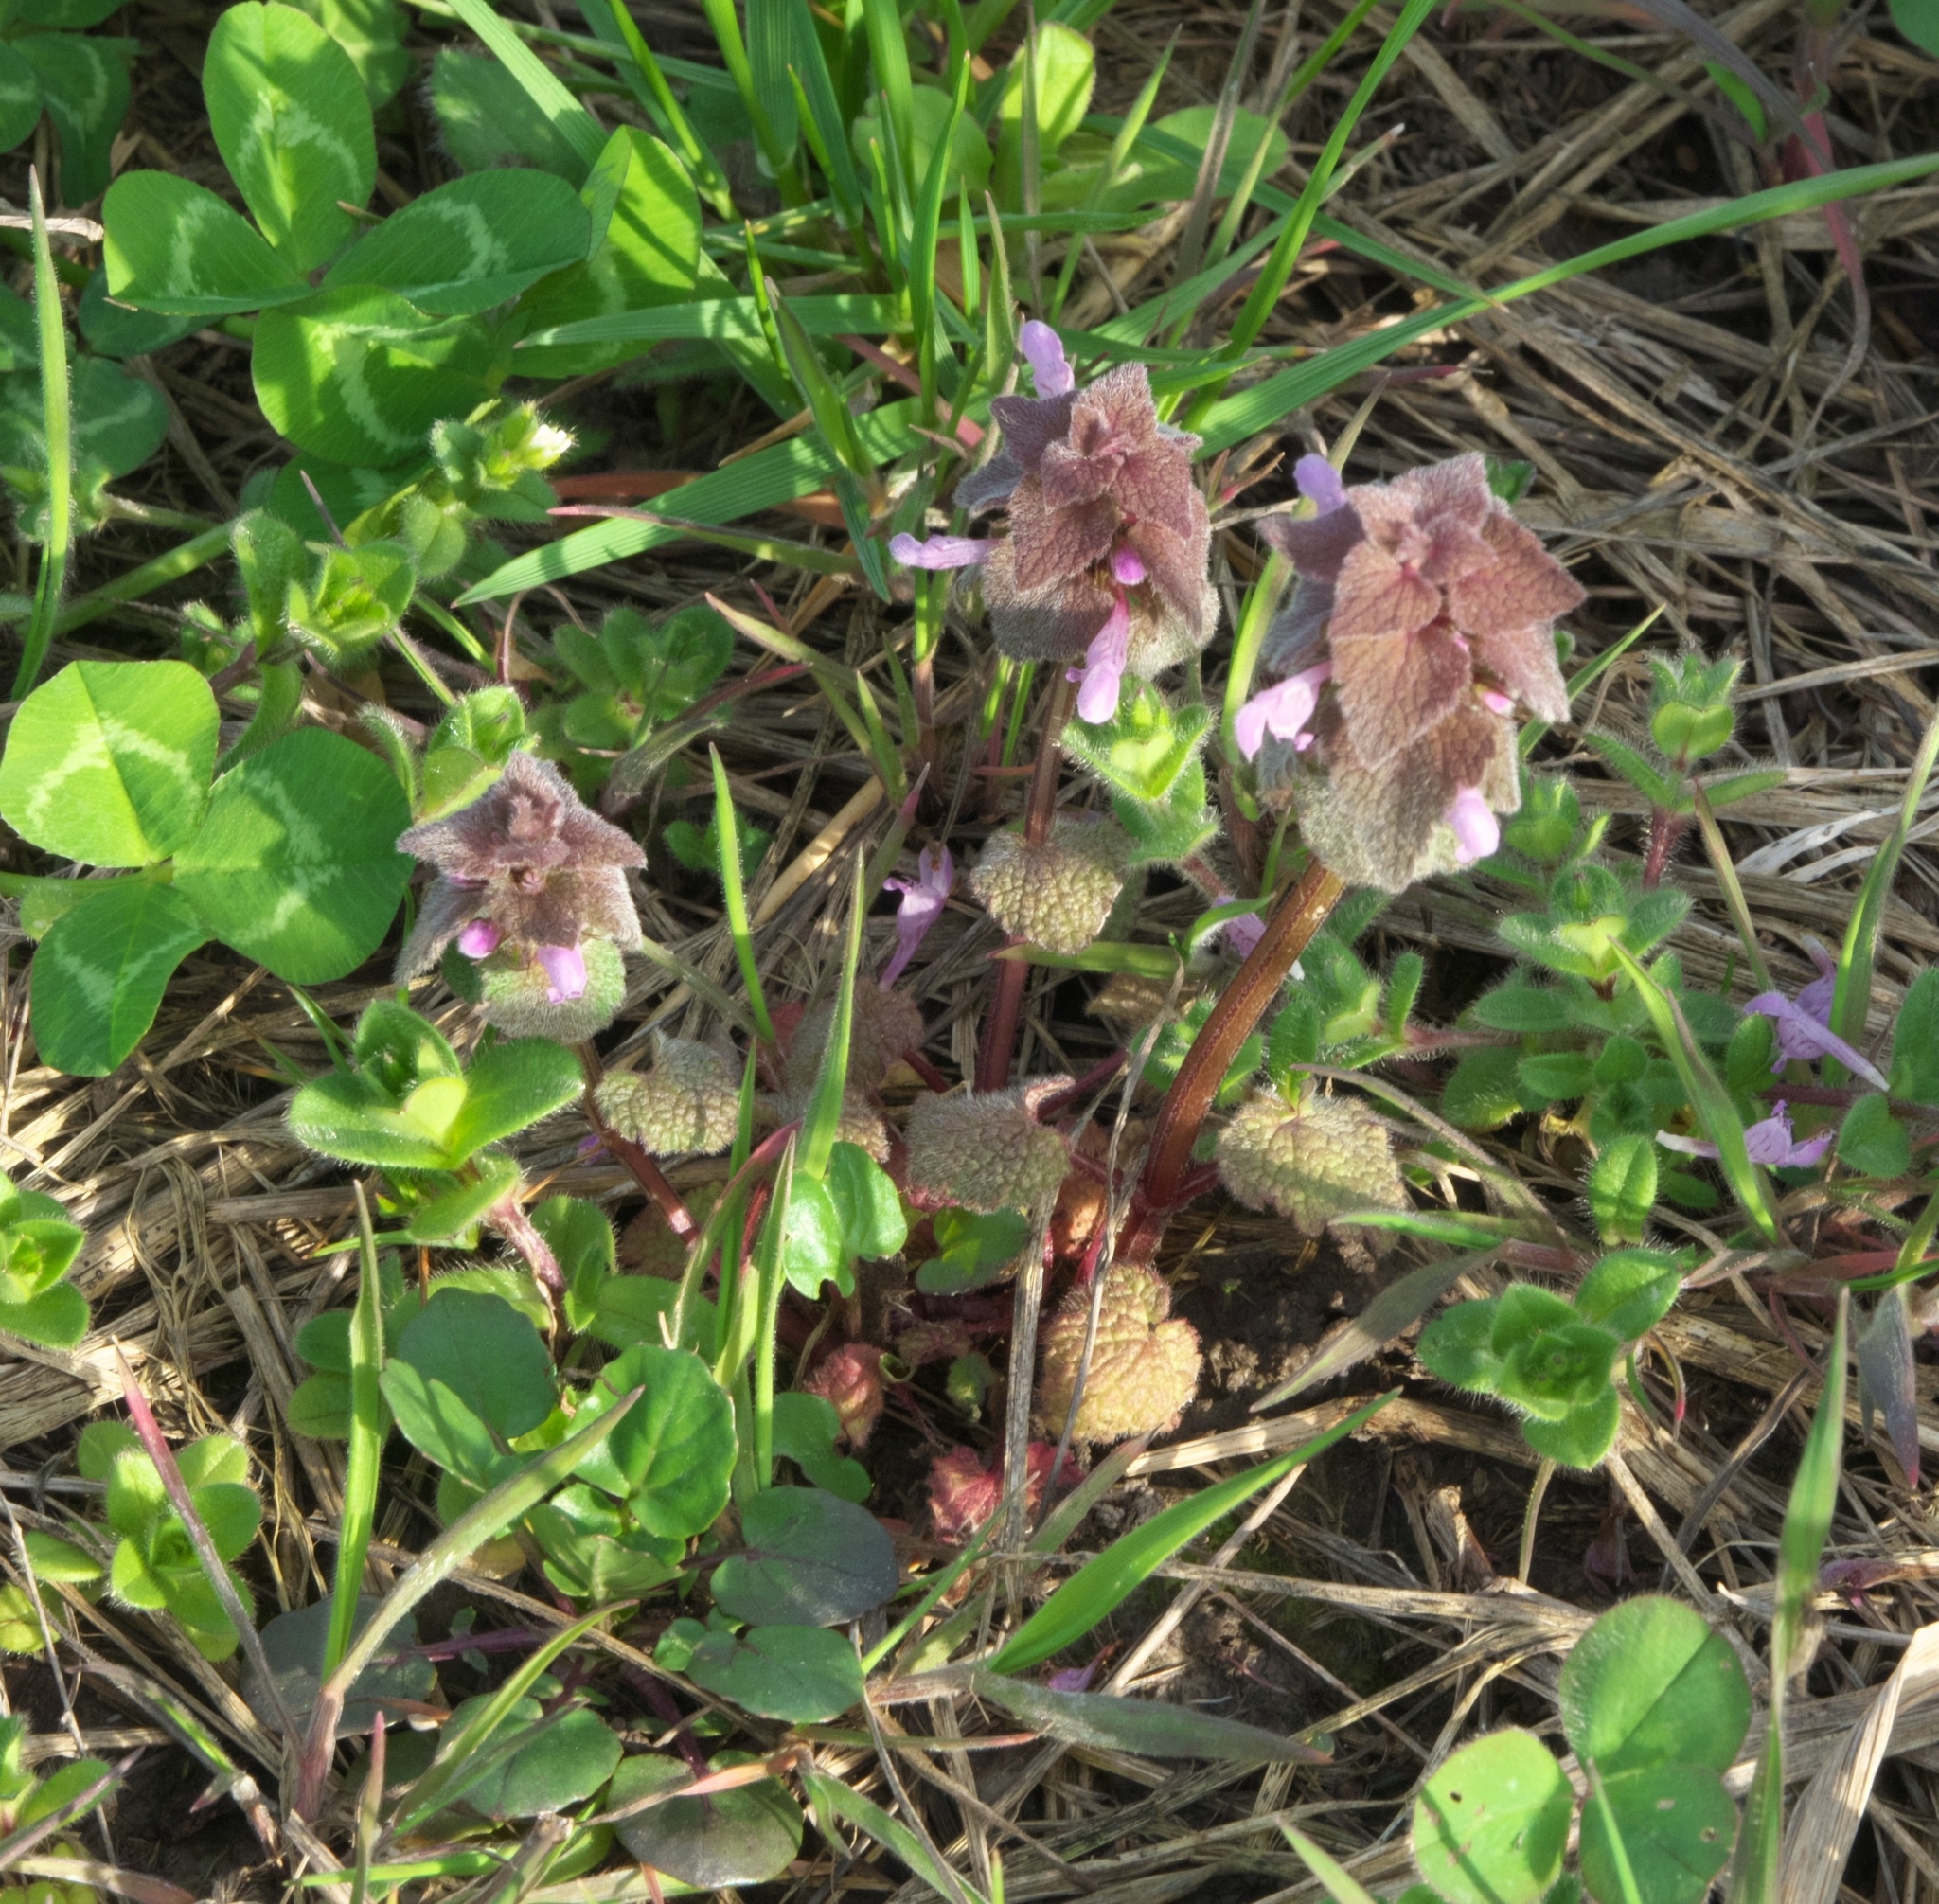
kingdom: Plantae
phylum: Tracheophyta
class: Magnoliopsida
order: Lamiales
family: Lamiaceae
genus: Lamium
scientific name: Lamium purpureum
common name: Red dead-nettle
